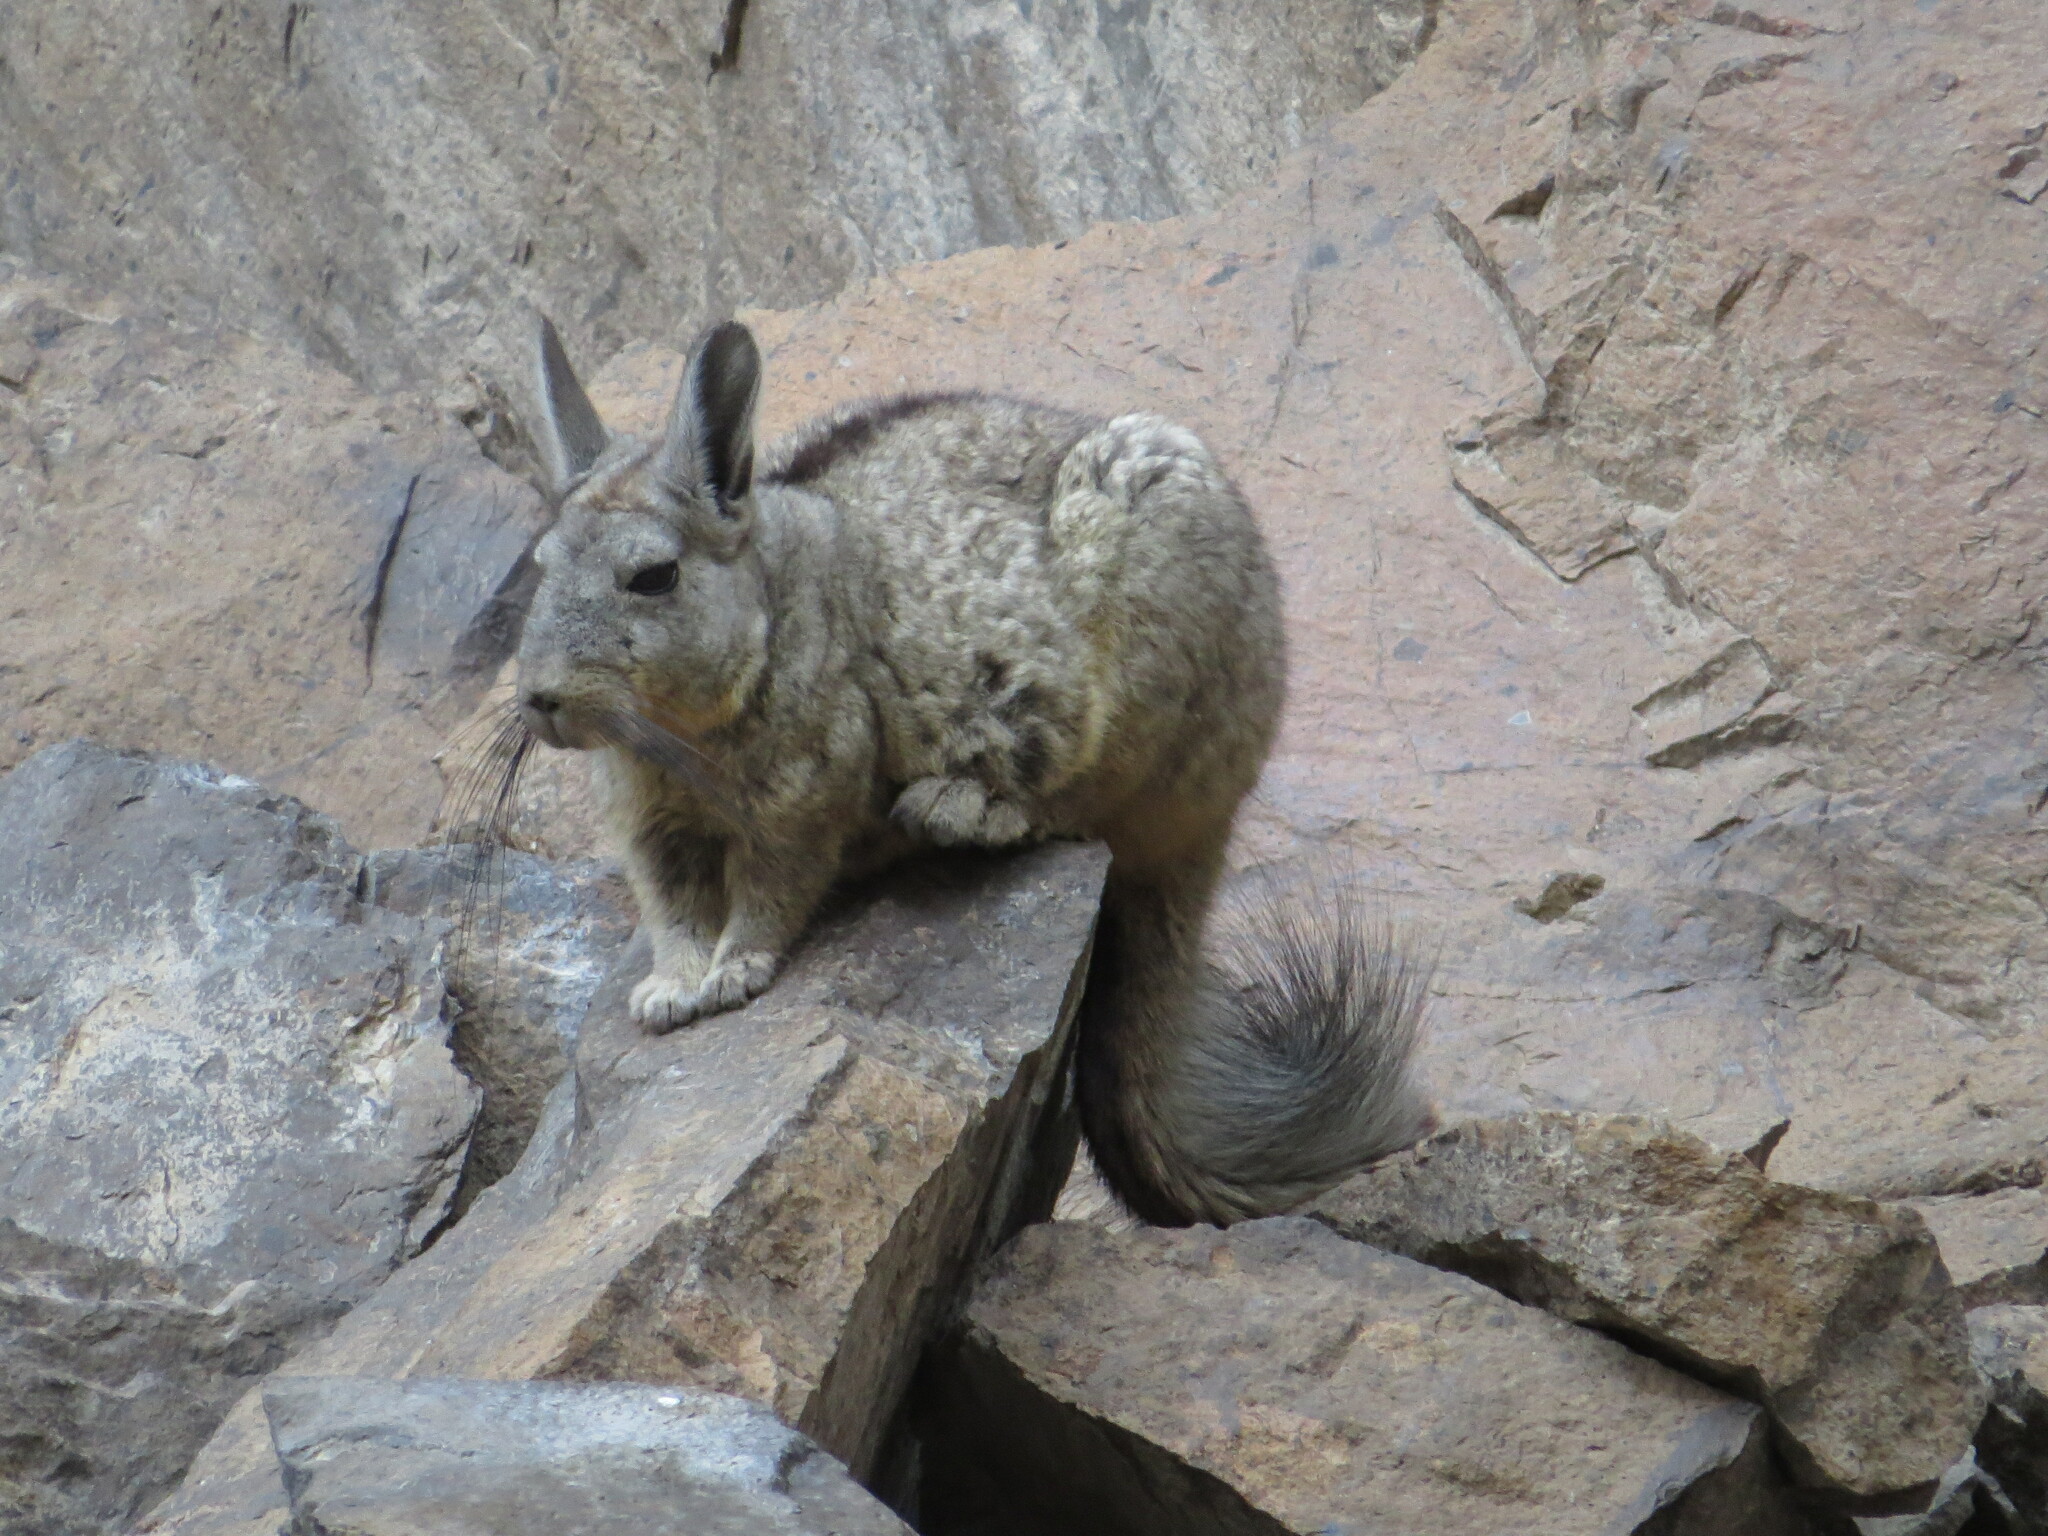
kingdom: Animalia
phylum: Chordata
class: Mammalia
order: Rodentia
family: Chinchillidae
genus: Lagidium
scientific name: Lagidium viscacia
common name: Southern viscacha
